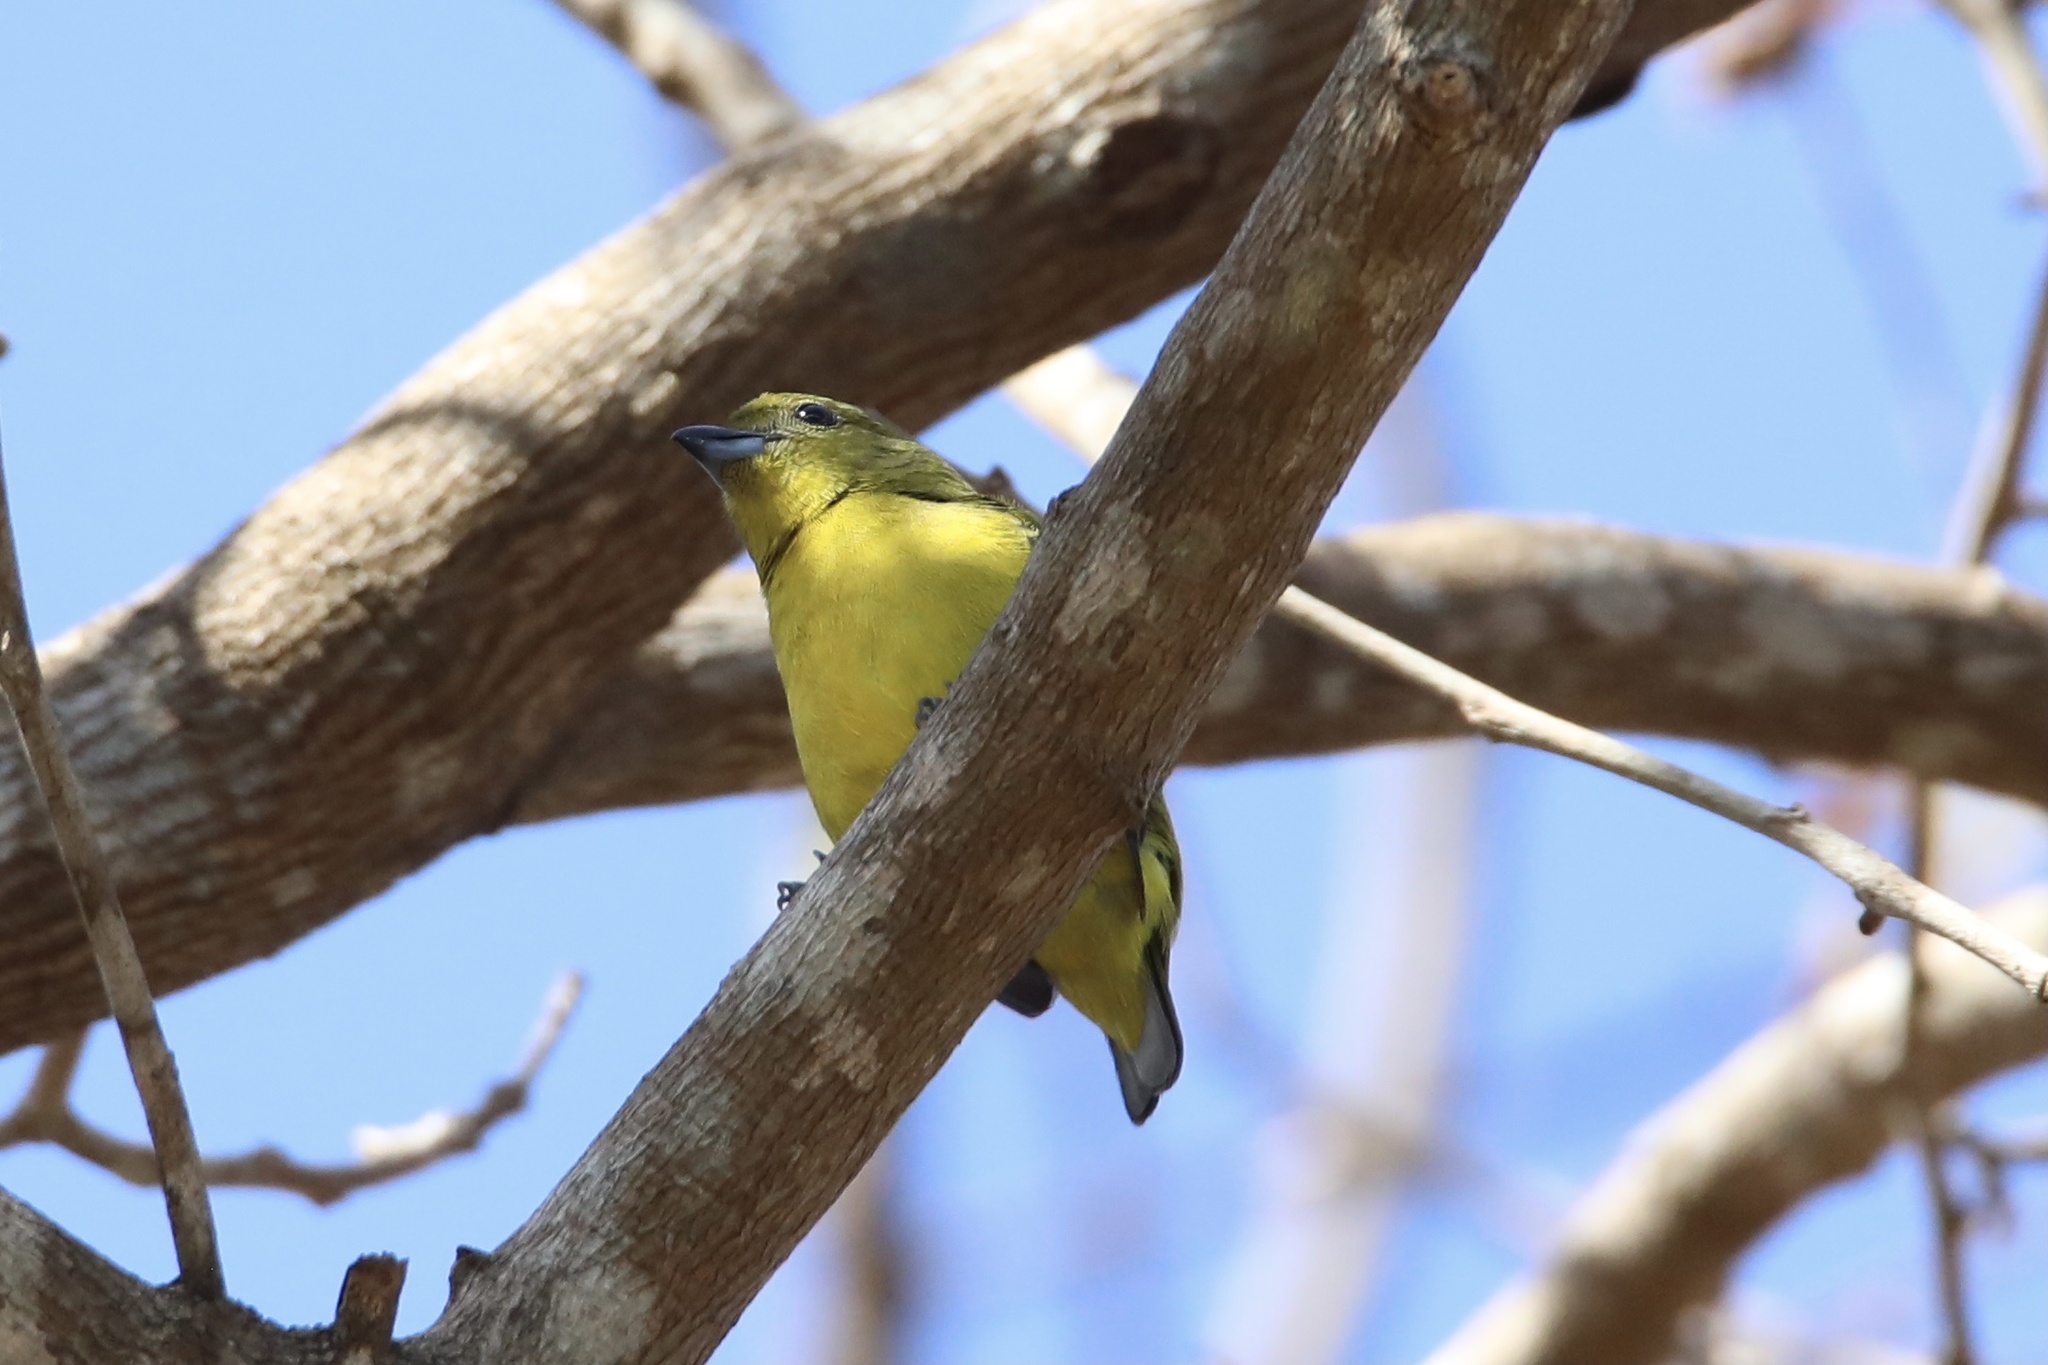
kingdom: Animalia
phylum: Chordata
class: Aves
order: Passeriformes
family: Fringillidae
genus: Euphonia
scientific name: Euphonia laniirostris
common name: Thick-billed euphonia
